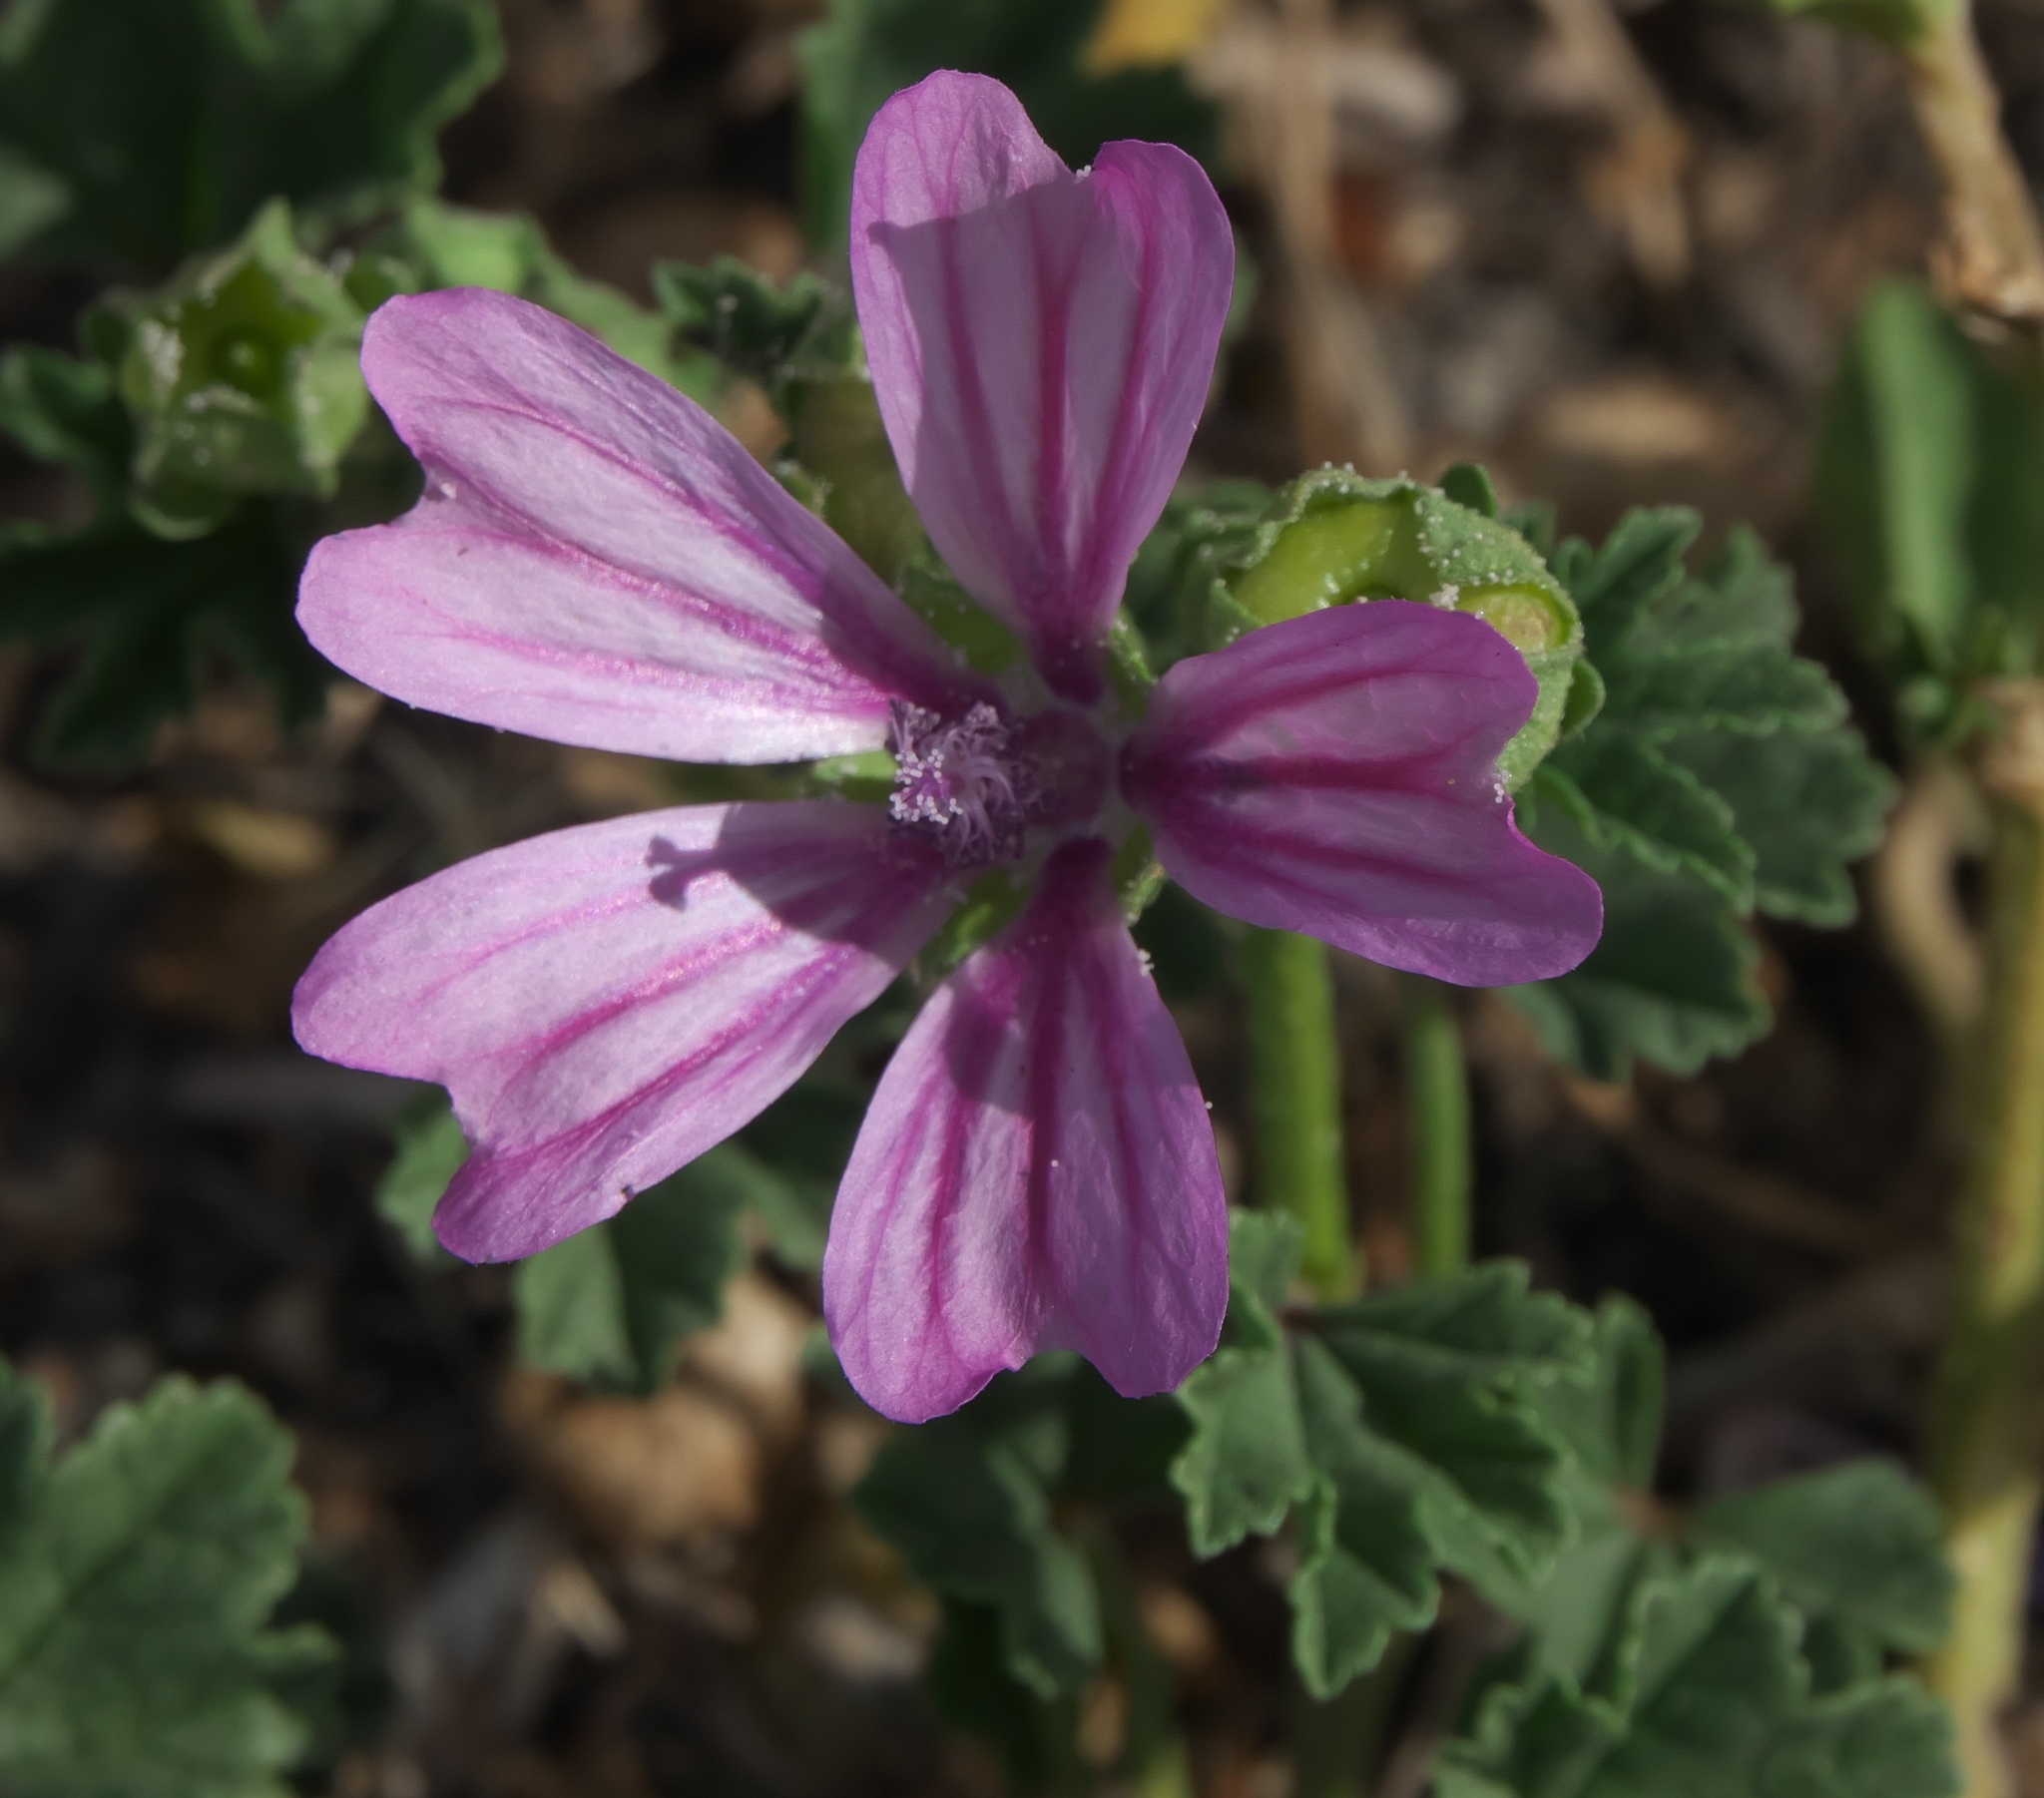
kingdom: Plantae
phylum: Tracheophyta
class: Magnoliopsida
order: Malvales
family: Malvaceae
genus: Malva
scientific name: Malva sylvestris
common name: Common mallow
